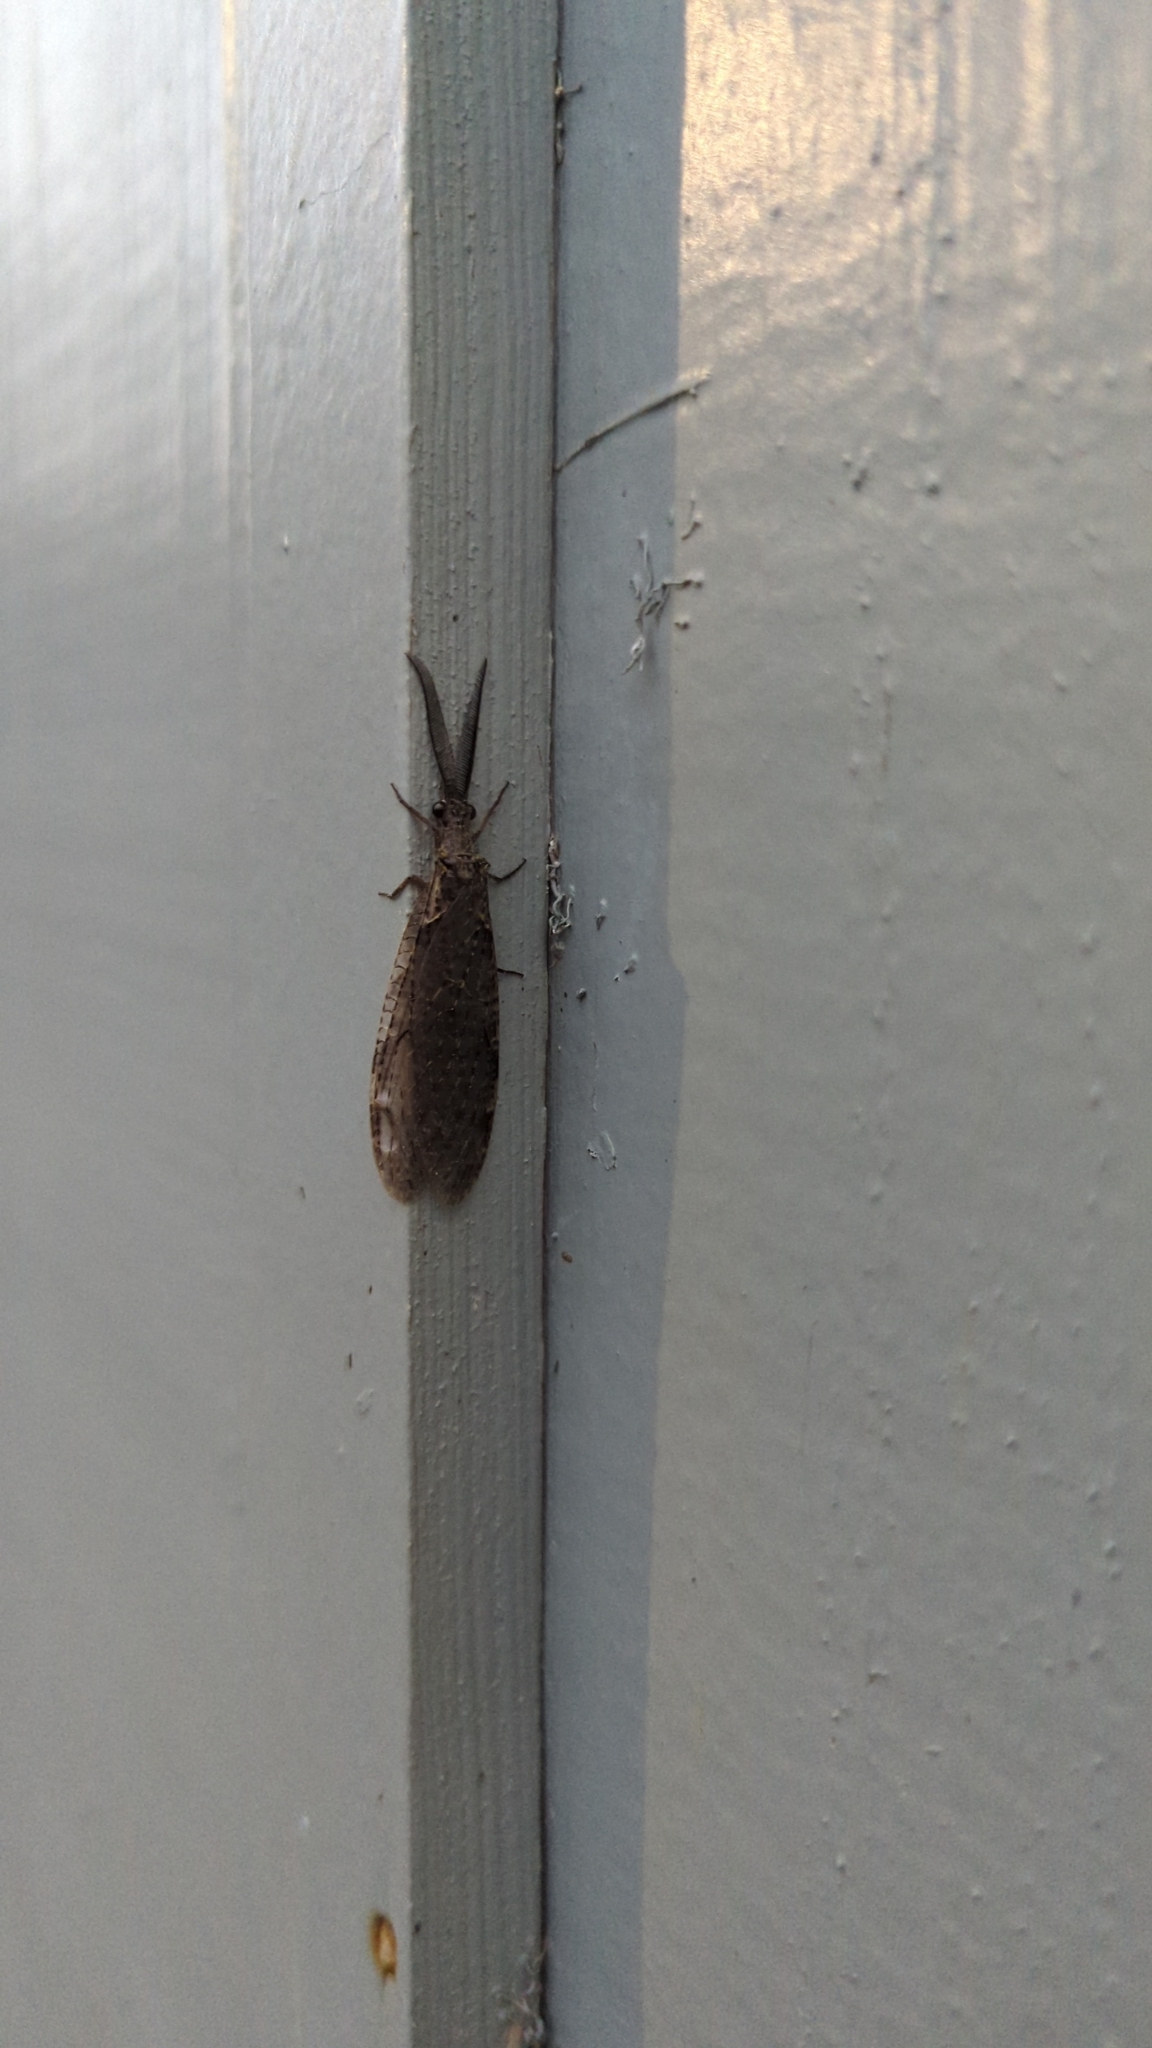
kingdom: Animalia
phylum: Arthropoda
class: Insecta
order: Megaloptera
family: Corydalidae
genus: Chauliodes
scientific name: Chauliodes rastricornis
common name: Spring fishfly
